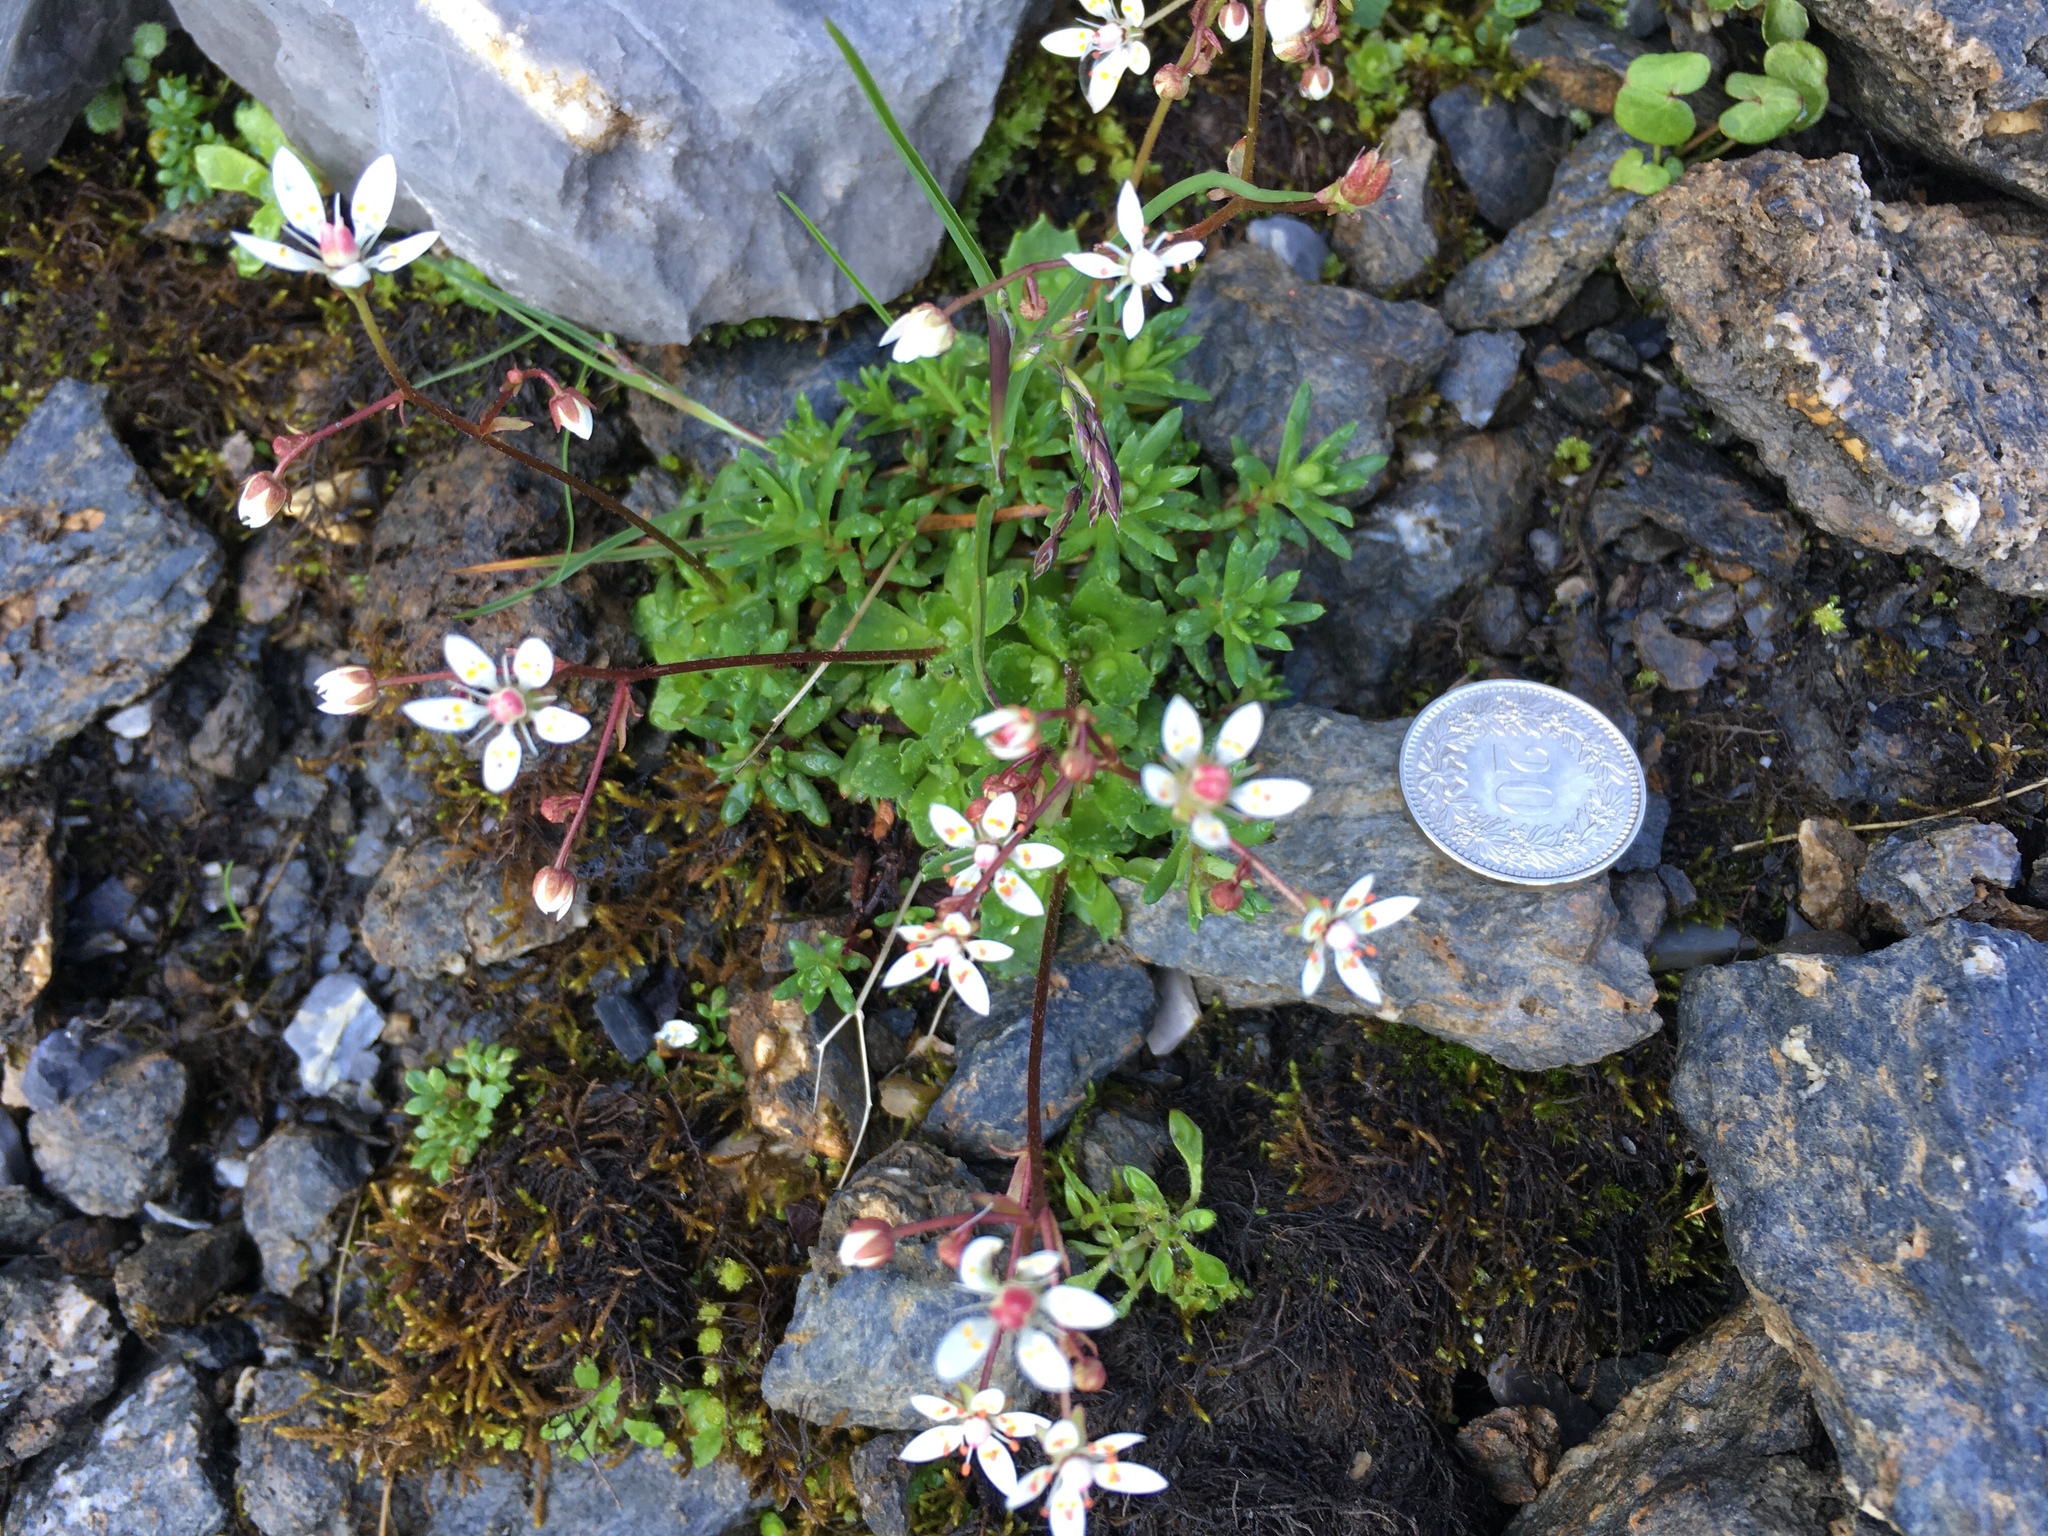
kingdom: Plantae
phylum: Tracheophyta
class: Magnoliopsida
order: Saxifragales
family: Saxifragaceae
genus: Micranthes
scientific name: Micranthes stellaris
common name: Starry saxifrage
